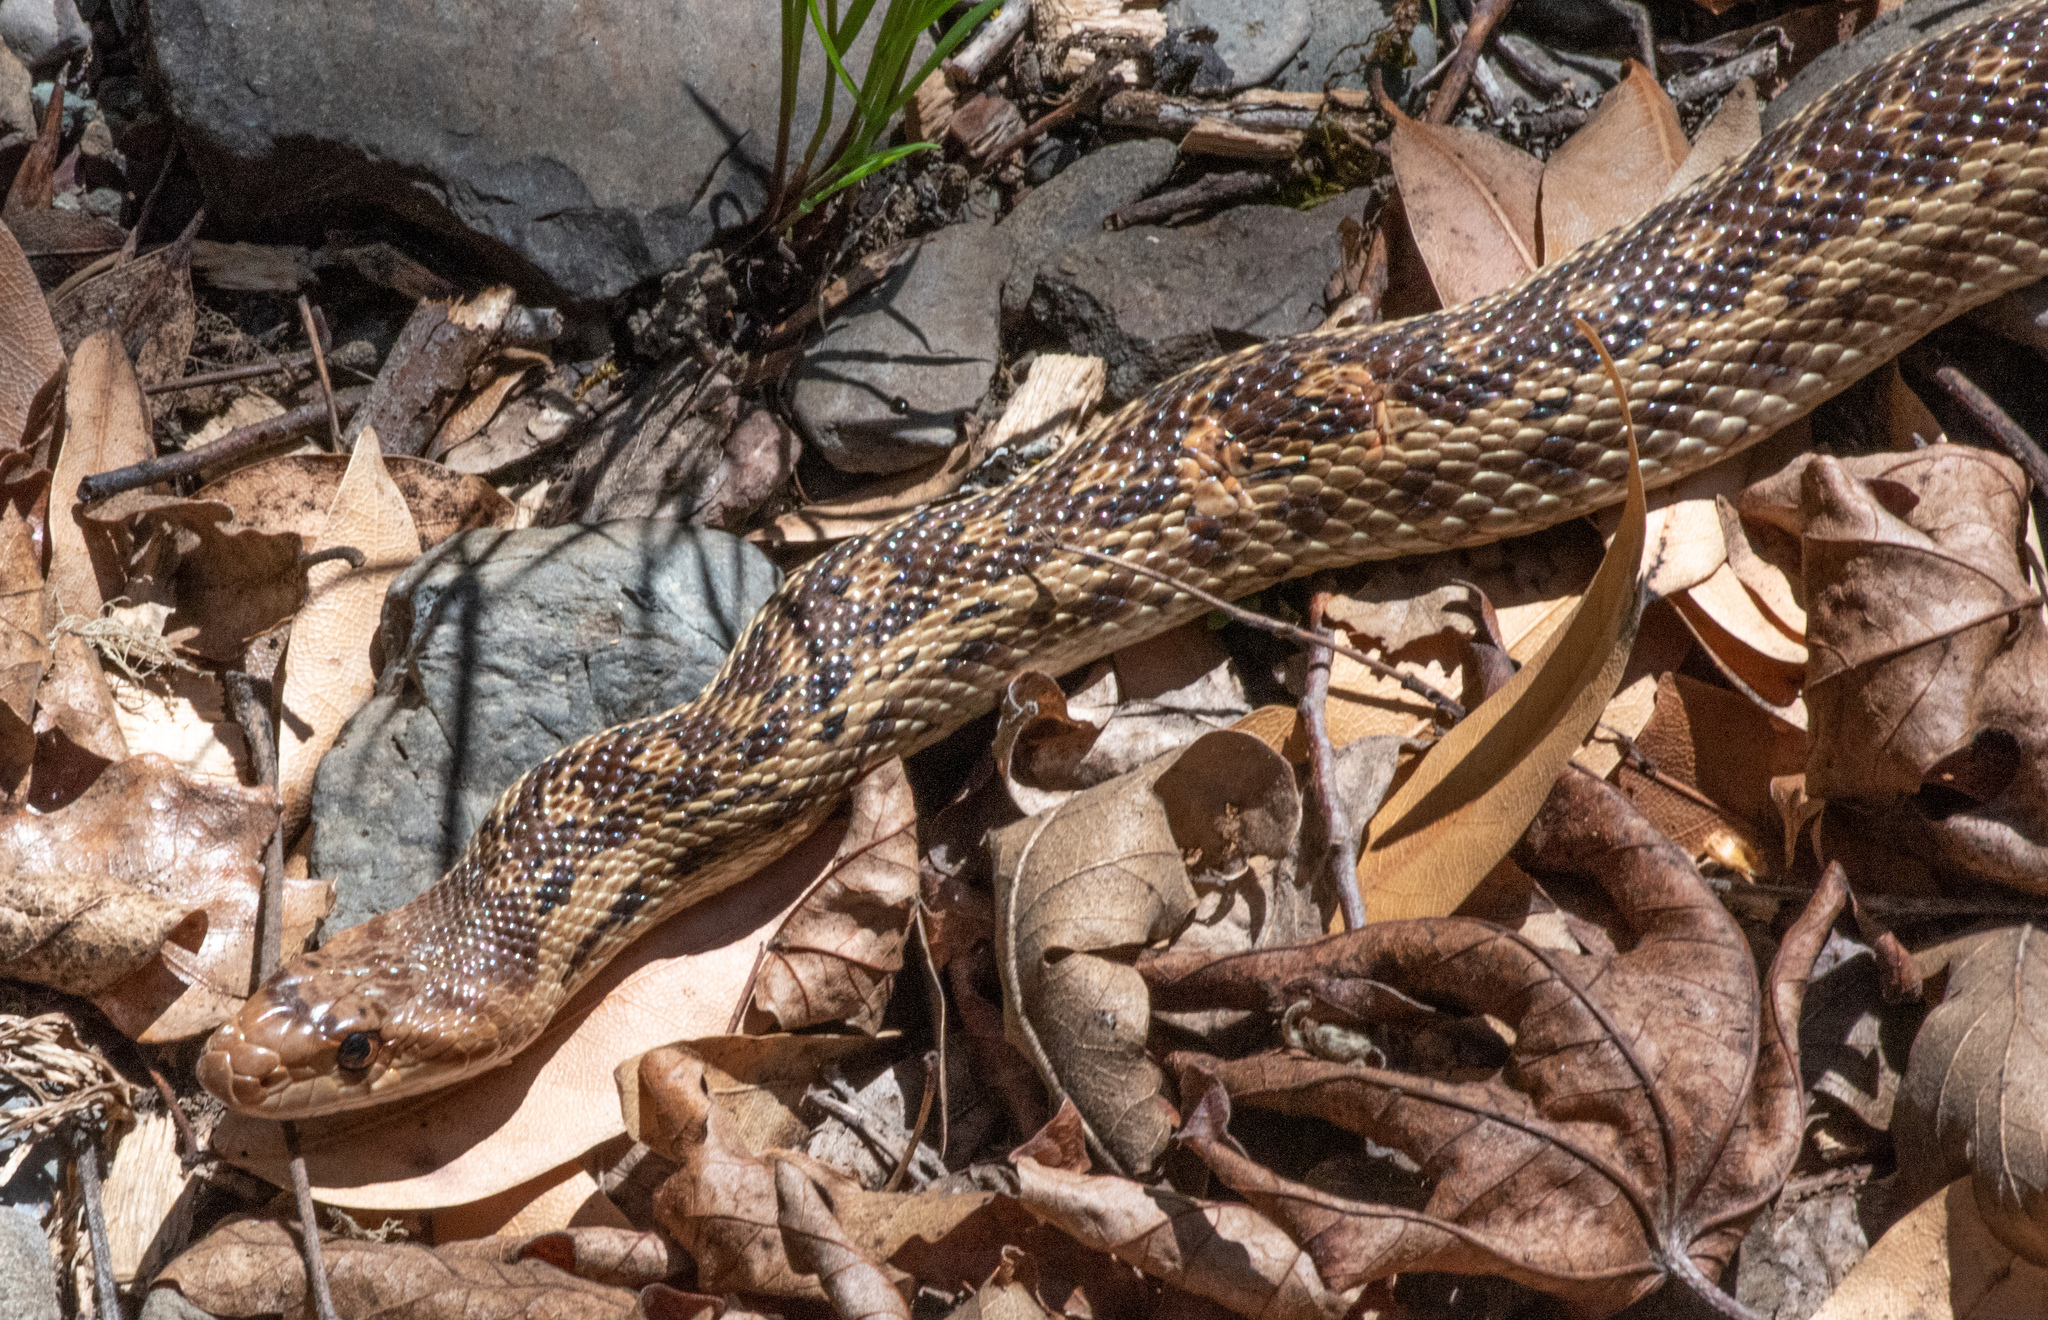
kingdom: Animalia
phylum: Chordata
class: Squamata
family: Colubridae
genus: Pituophis
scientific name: Pituophis catenifer
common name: Gopher snake
